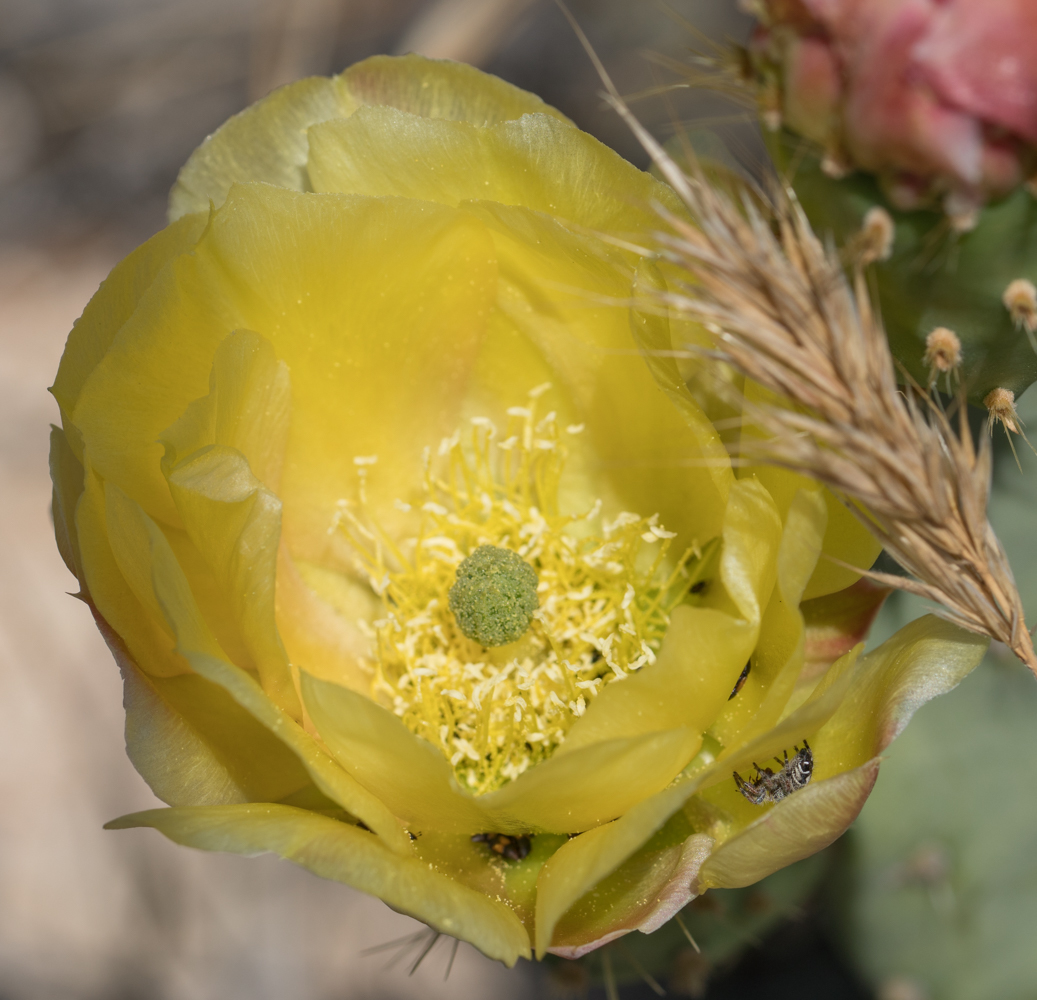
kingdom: Plantae
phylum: Tracheophyta
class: Magnoliopsida
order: Caryophyllales
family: Cactaceae
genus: Opuntia
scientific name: Opuntia
